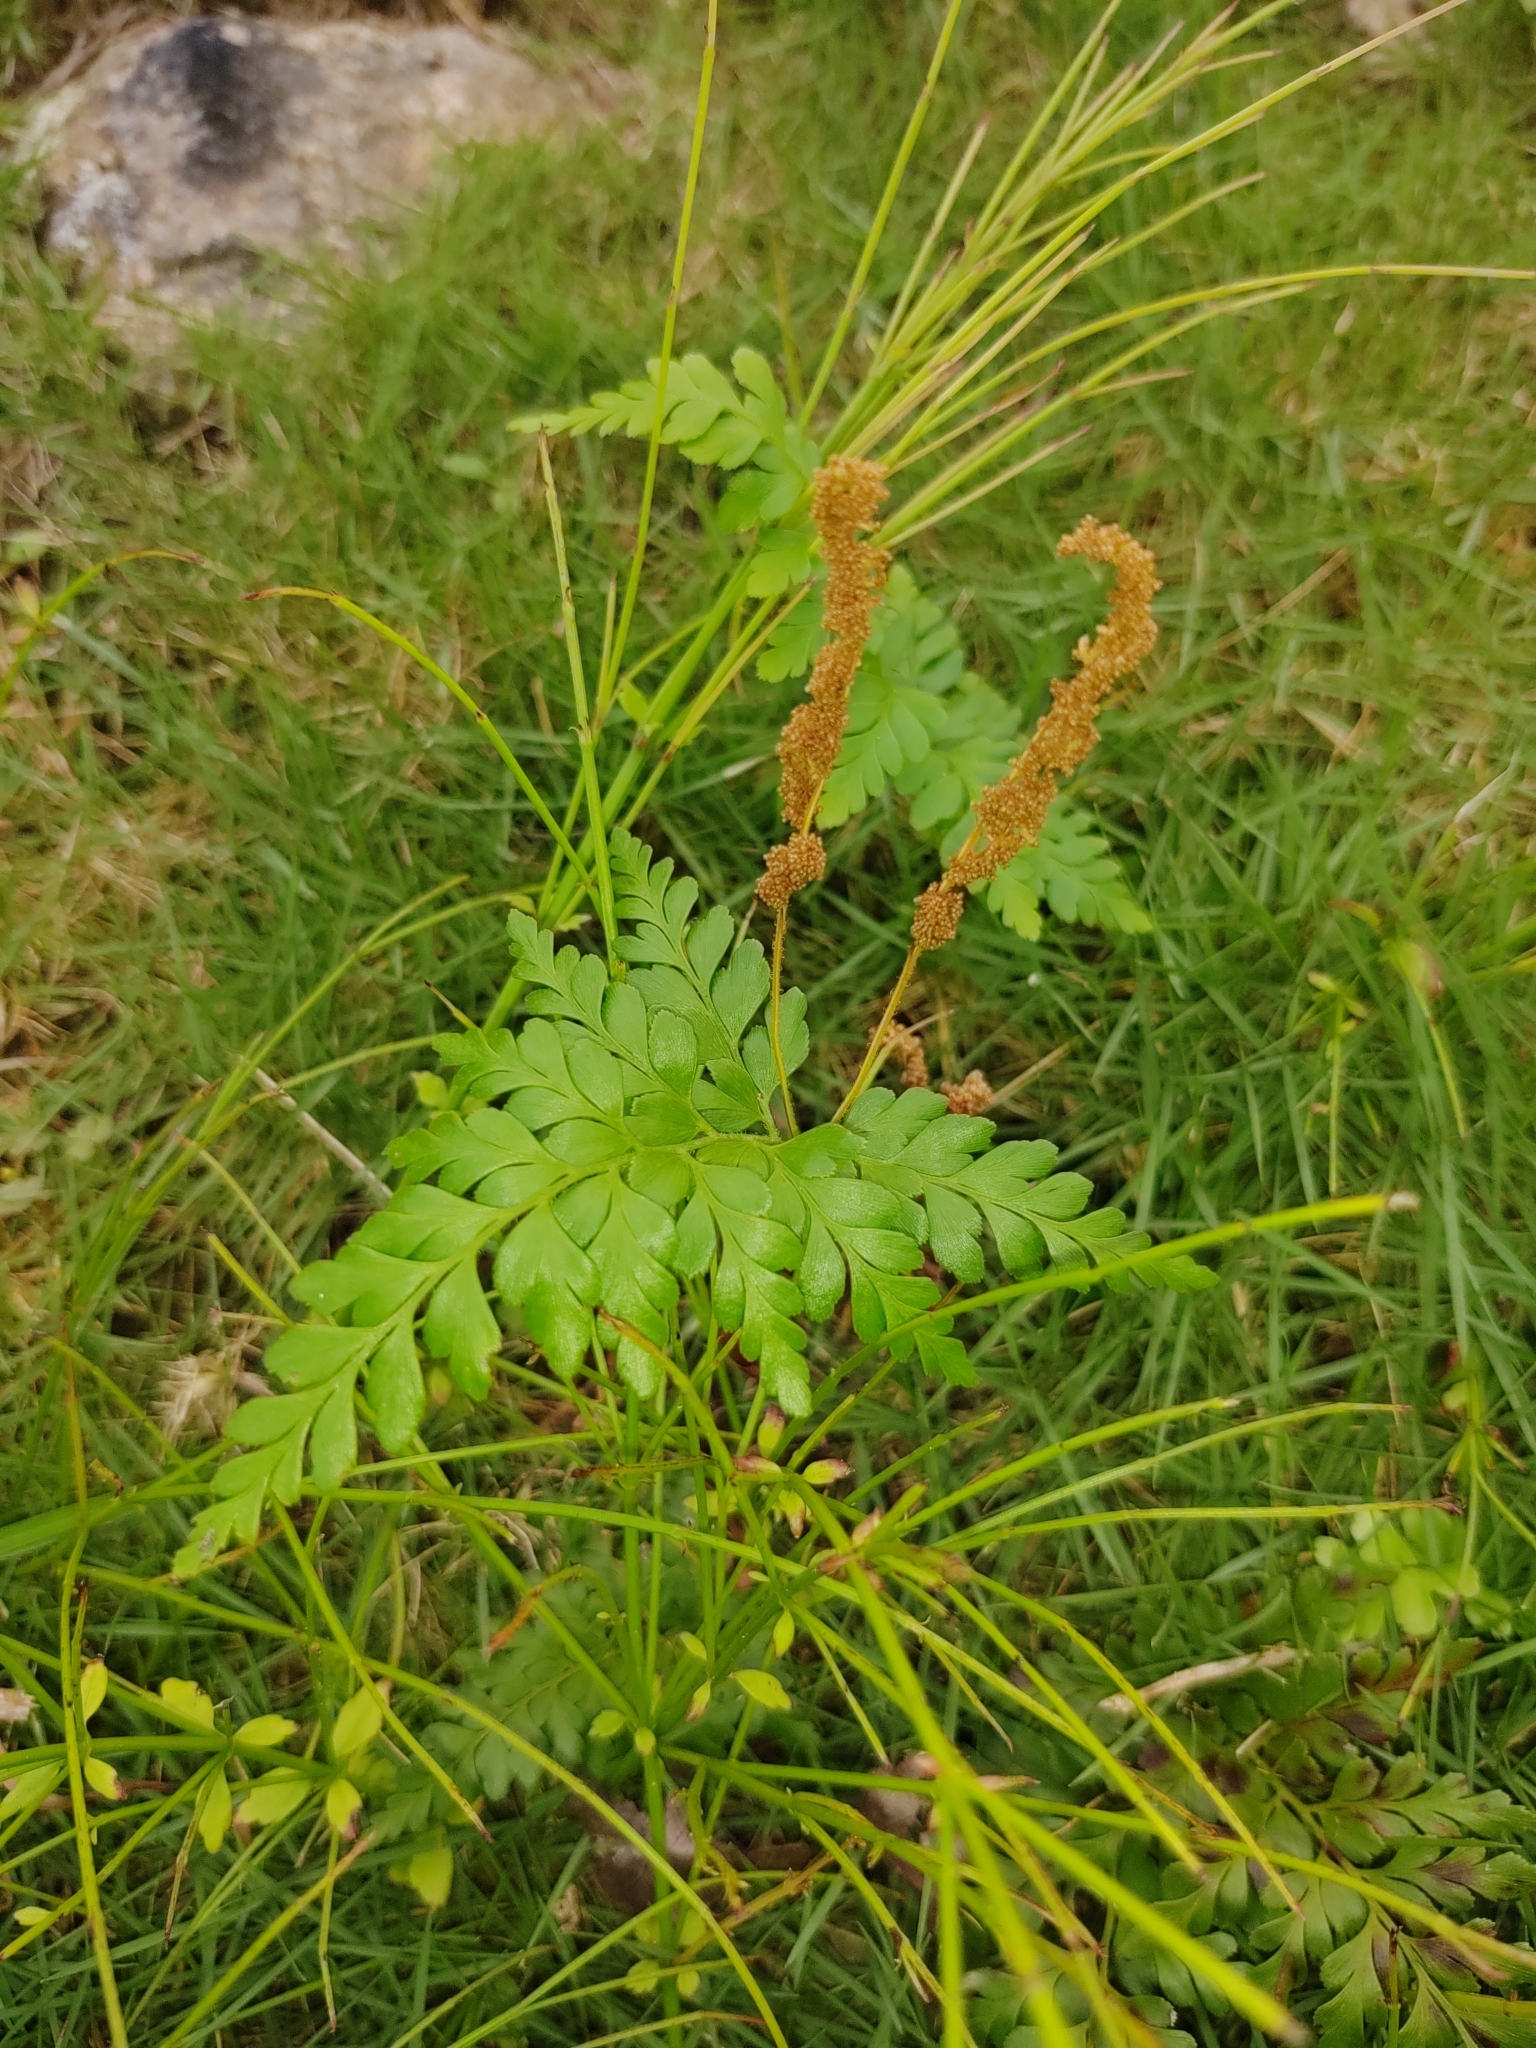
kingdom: Plantae
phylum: Tracheophyta
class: Polypodiopsida
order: Schizaeales
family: Anemiaceae
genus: Anemia
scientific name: Anemia adiantifolia
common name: Pine fern
